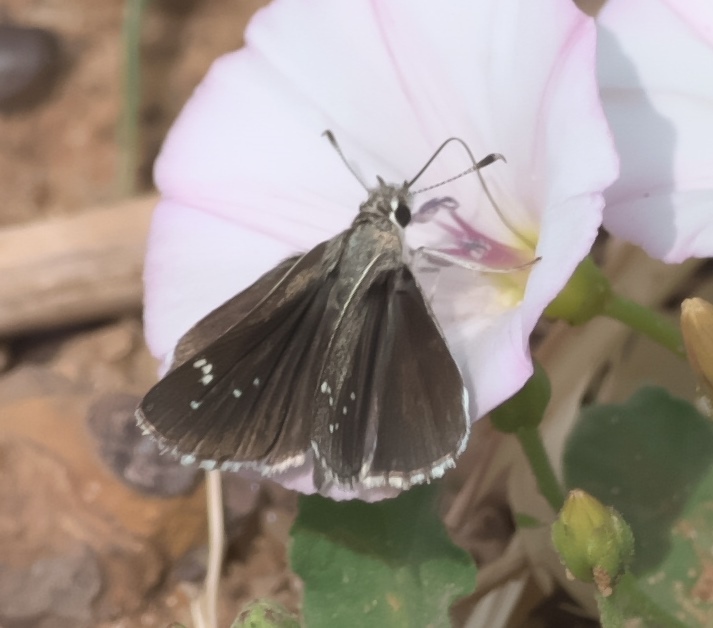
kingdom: Animalia
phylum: Arthropoda
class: Insecta
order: Lepidoptera
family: Hesperiidae
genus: Mastor
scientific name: Mastor eos
